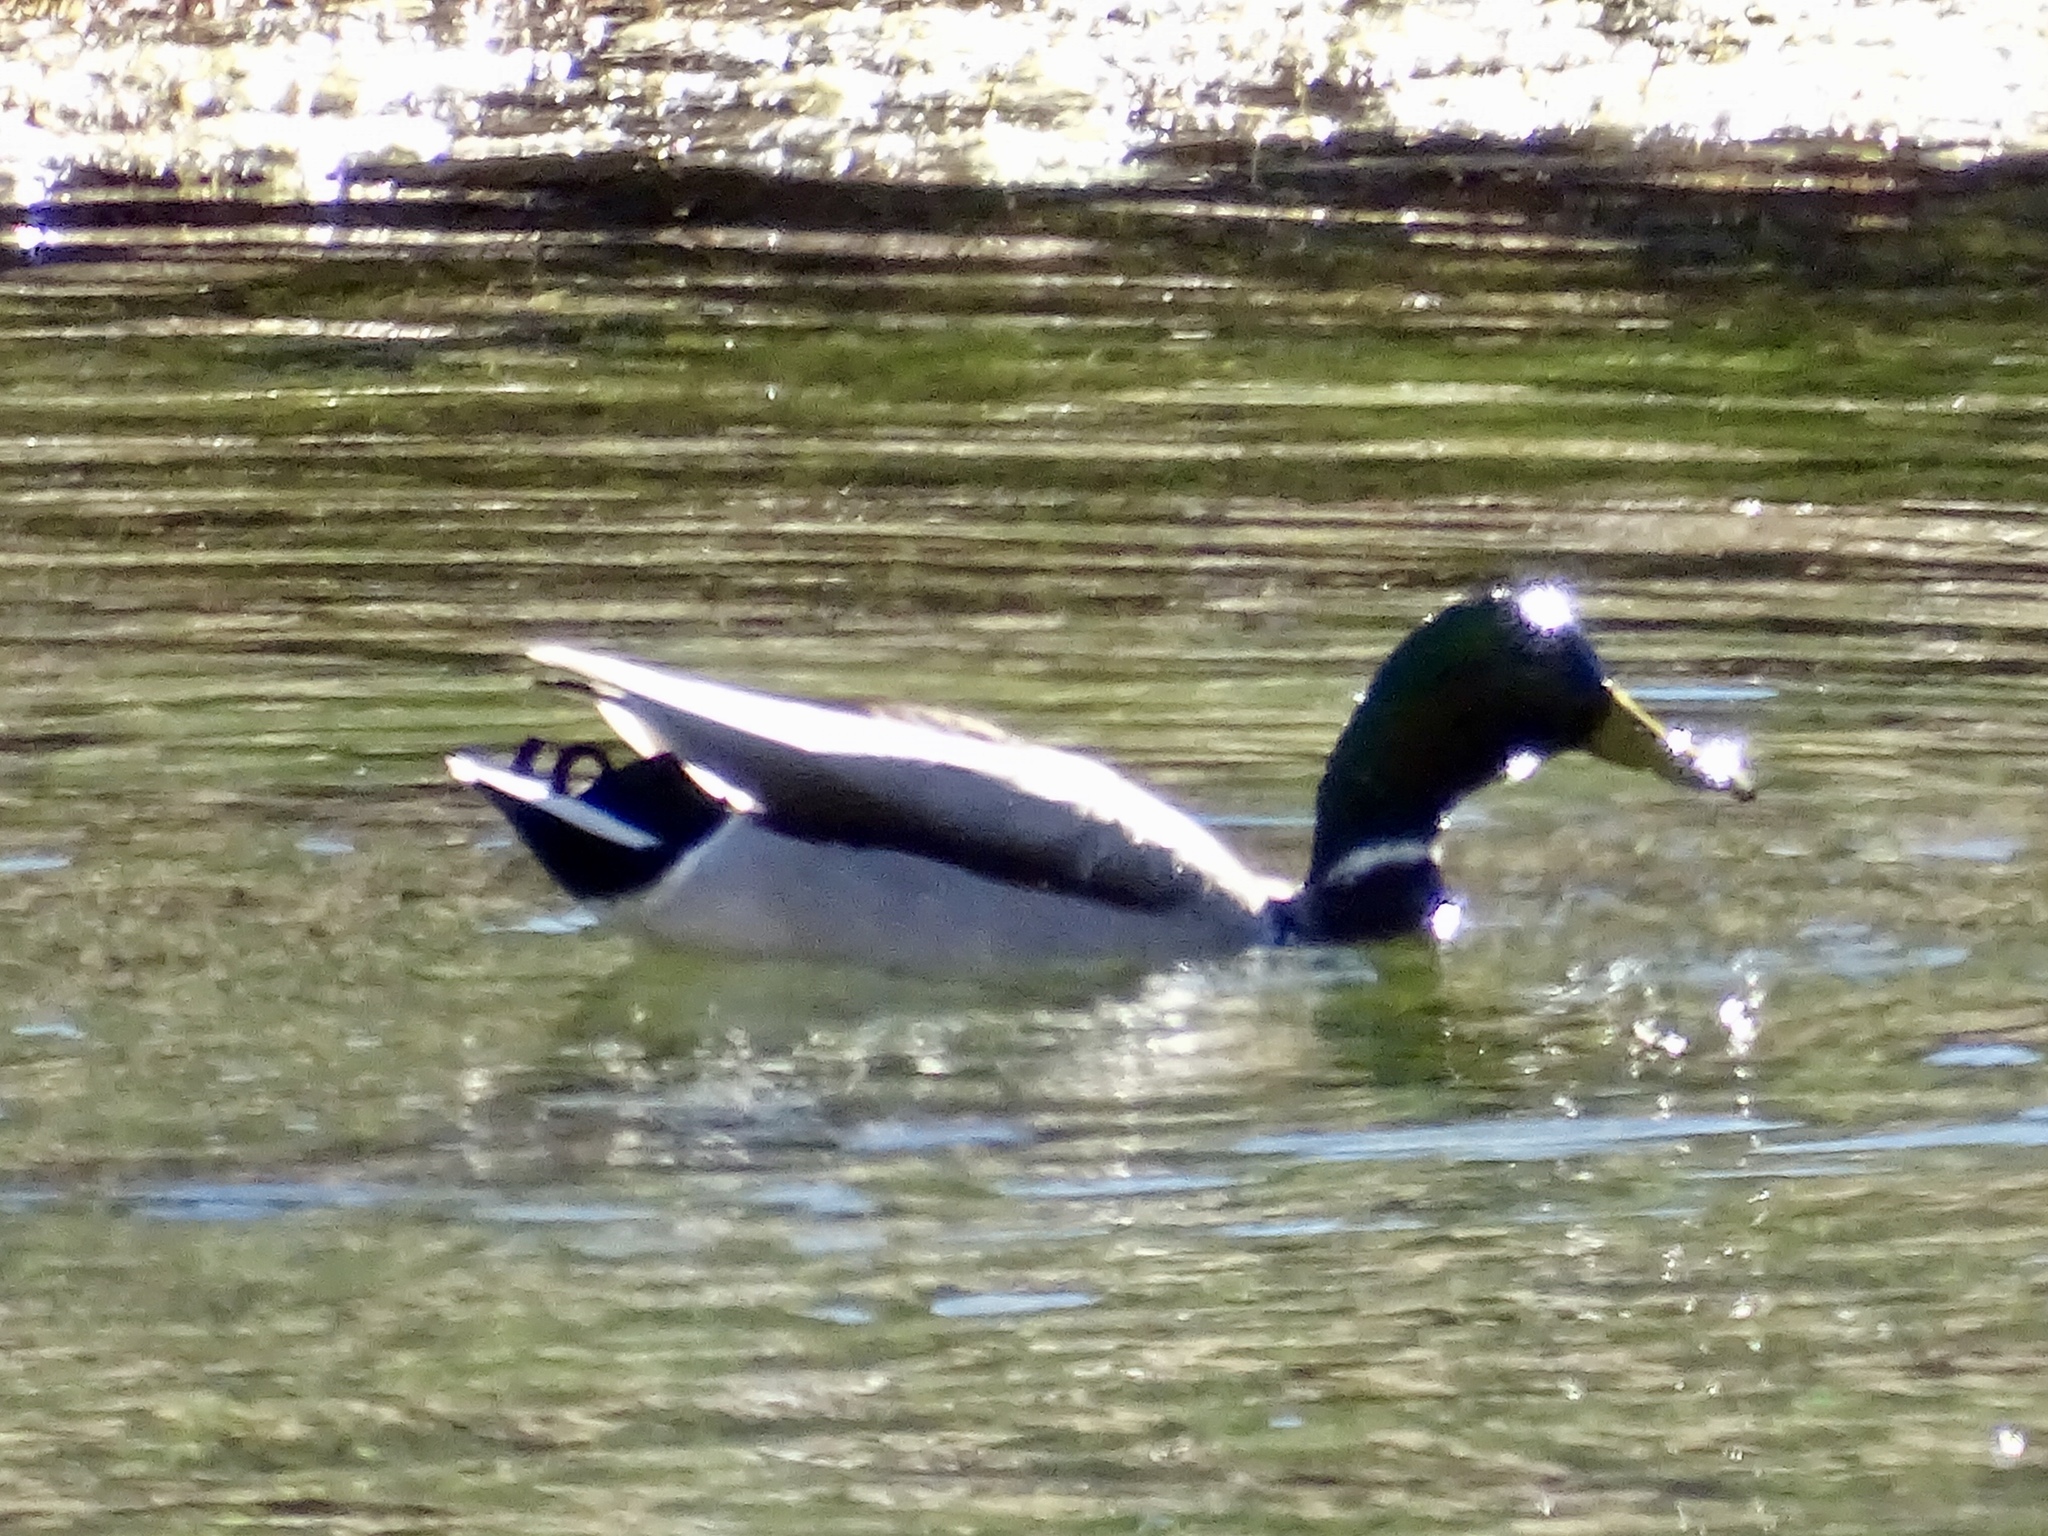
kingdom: Animalia
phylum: Chordata
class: Aves
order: Anseriformes
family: Anatidae
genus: Anas
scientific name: Anas platyrhynchos
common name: Mallard
